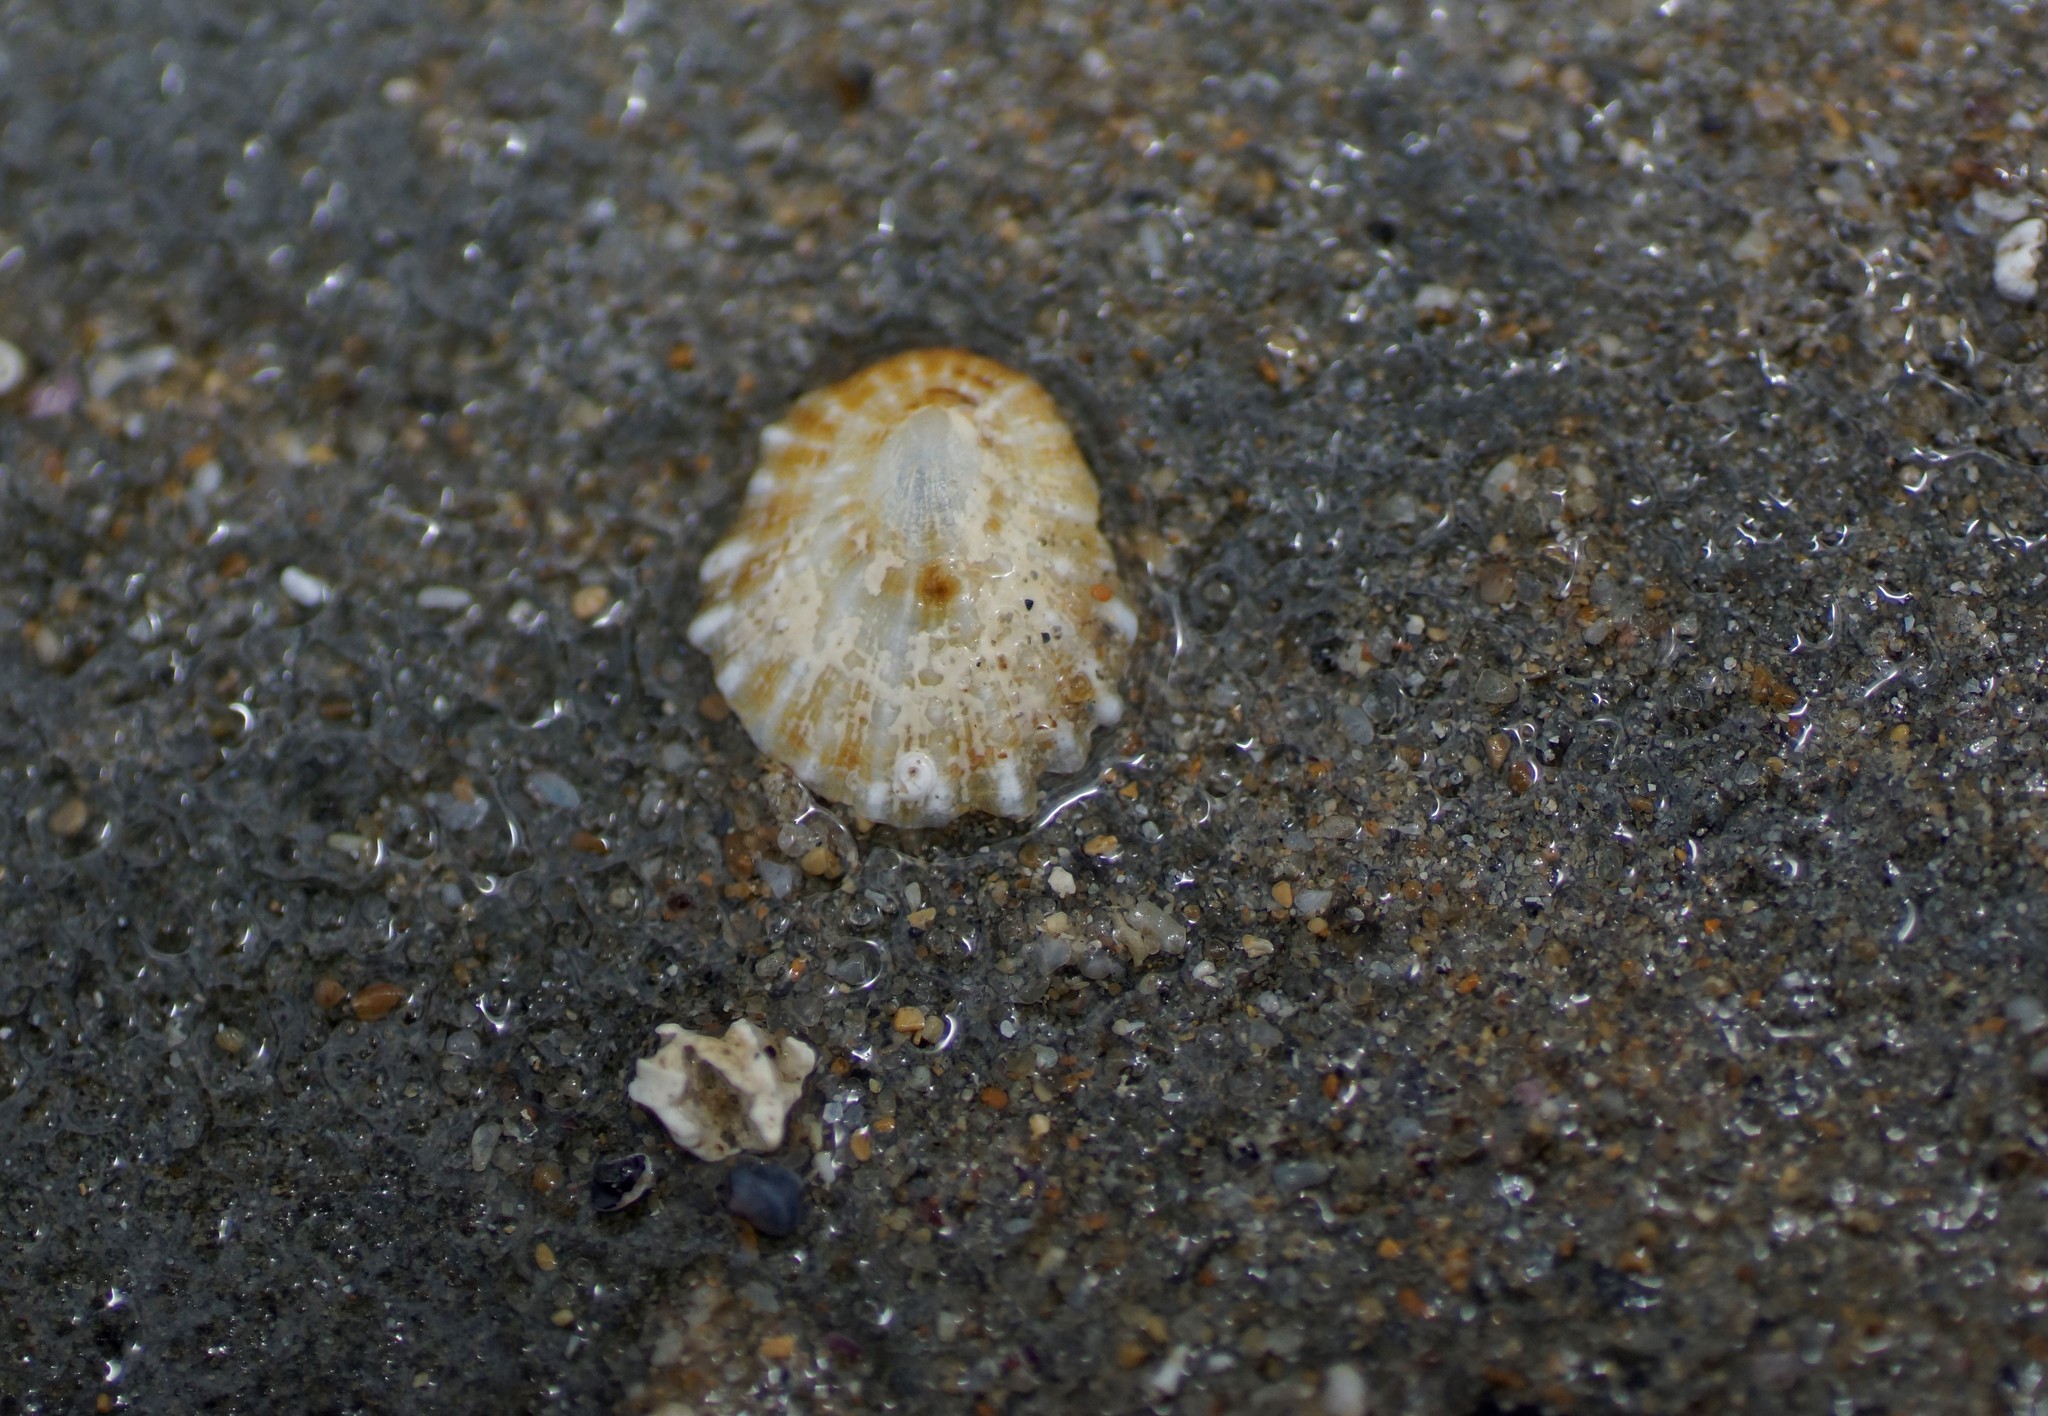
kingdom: Animalia
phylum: Mollusca
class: Gastropoda
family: Patellidae
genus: Scutellastra
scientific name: Scutellastra peronii
